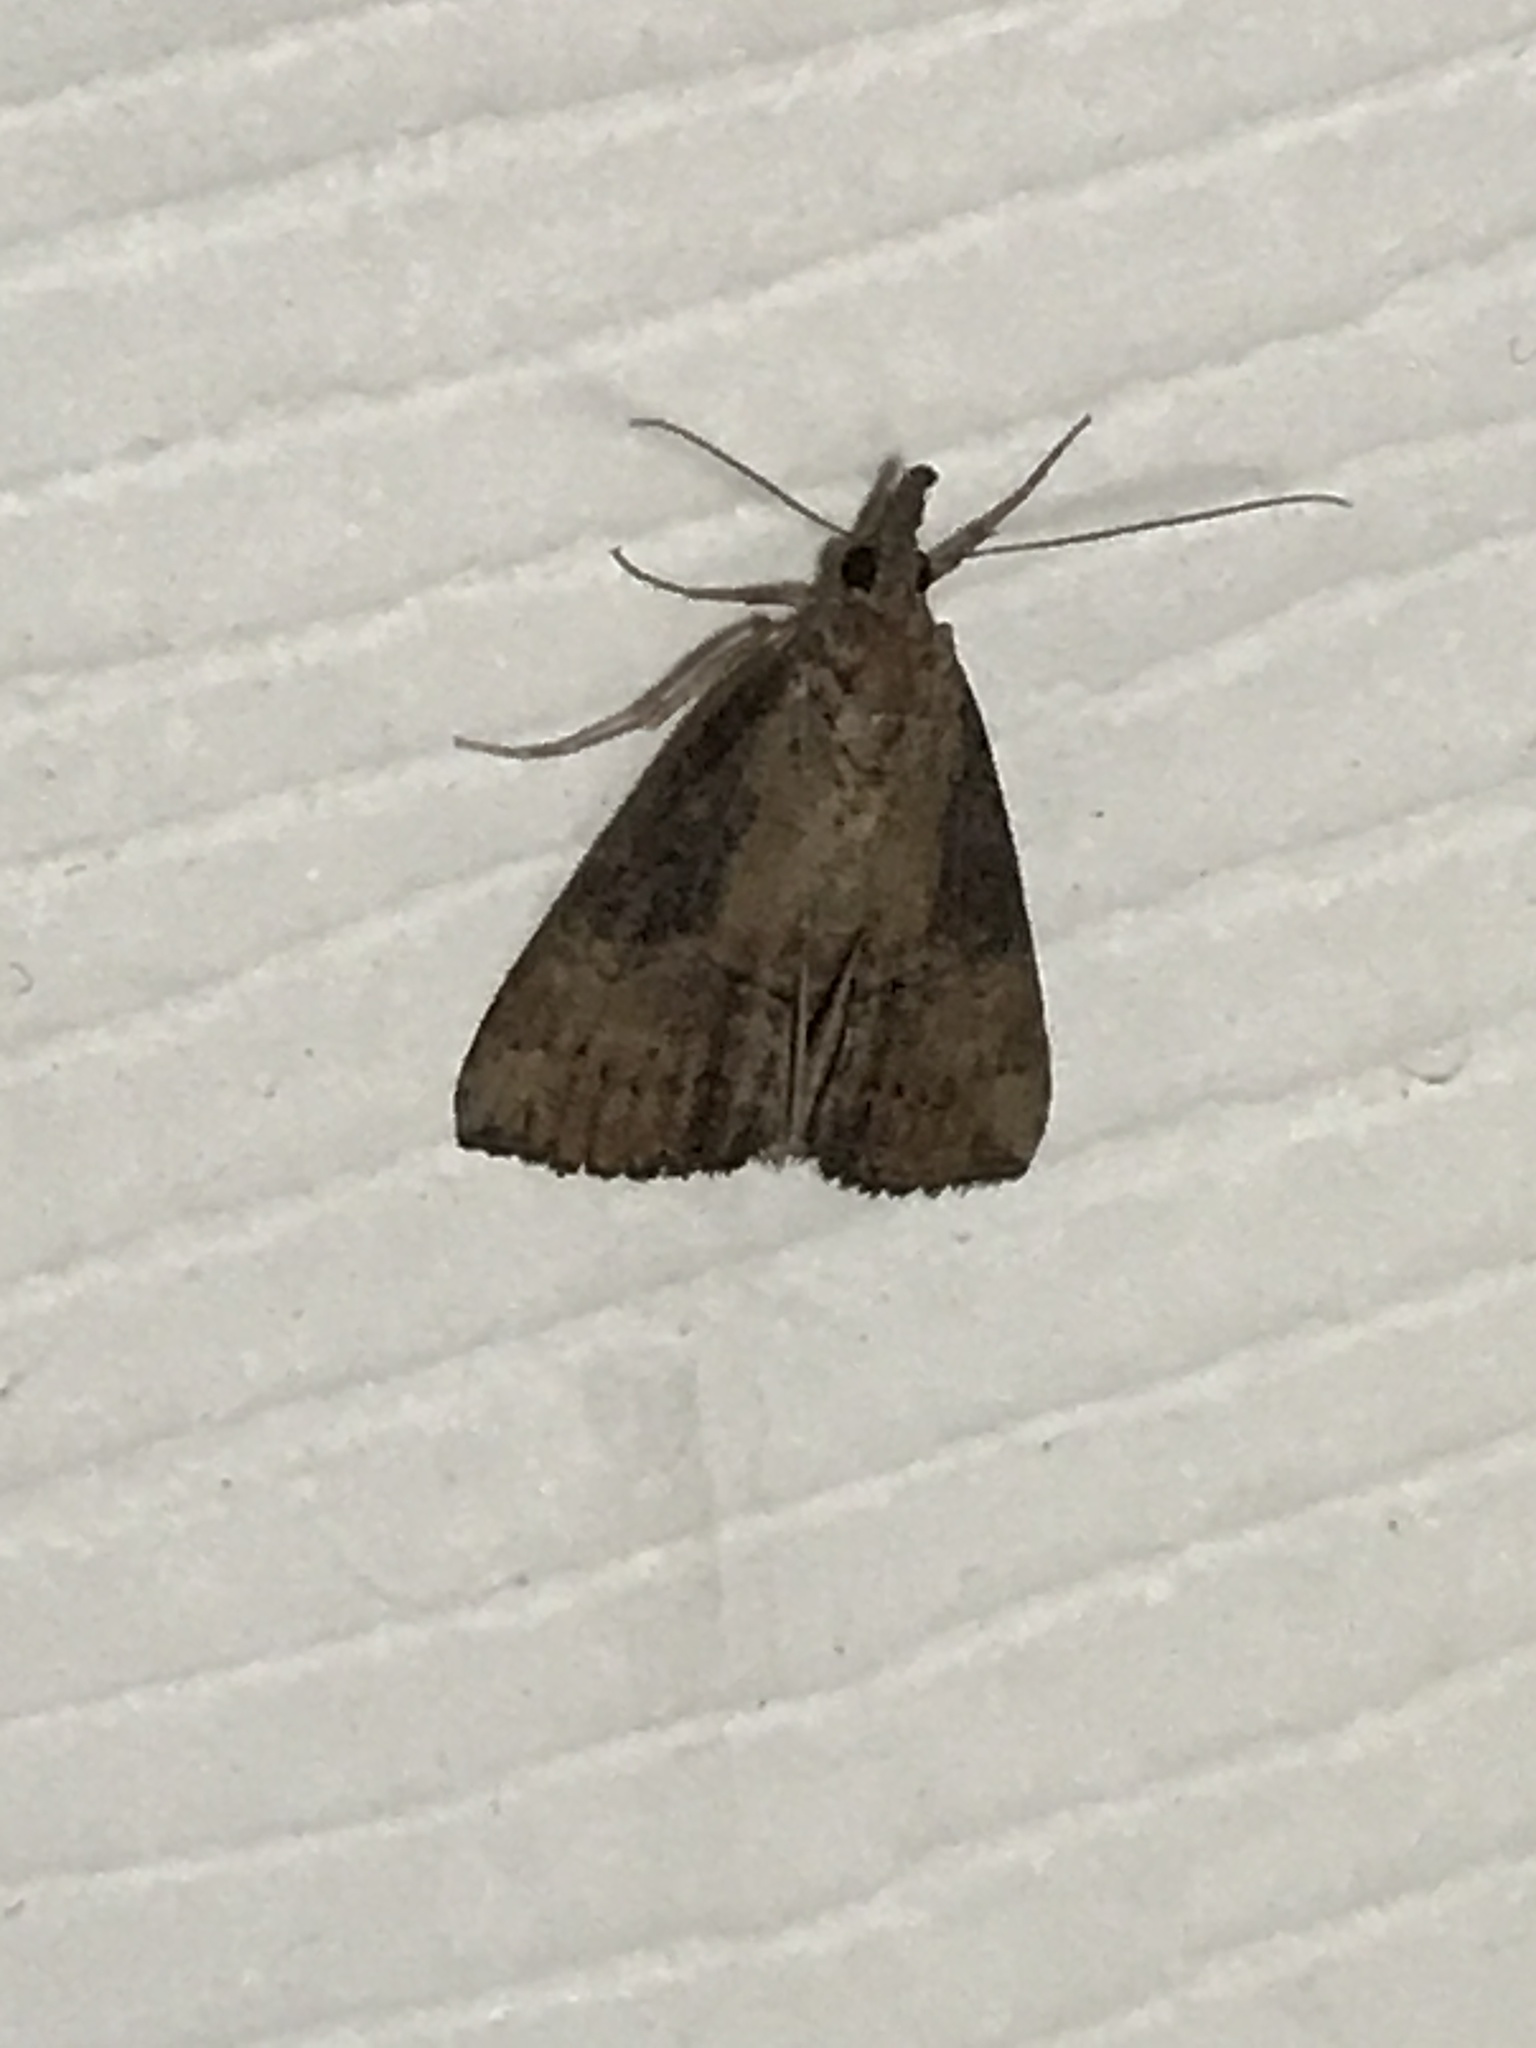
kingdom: Animalia
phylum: Arthropoda
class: Insecta
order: Lepidoptera
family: Erebidae
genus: Hypena
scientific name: Hypena scabra
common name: Green cloverworm
